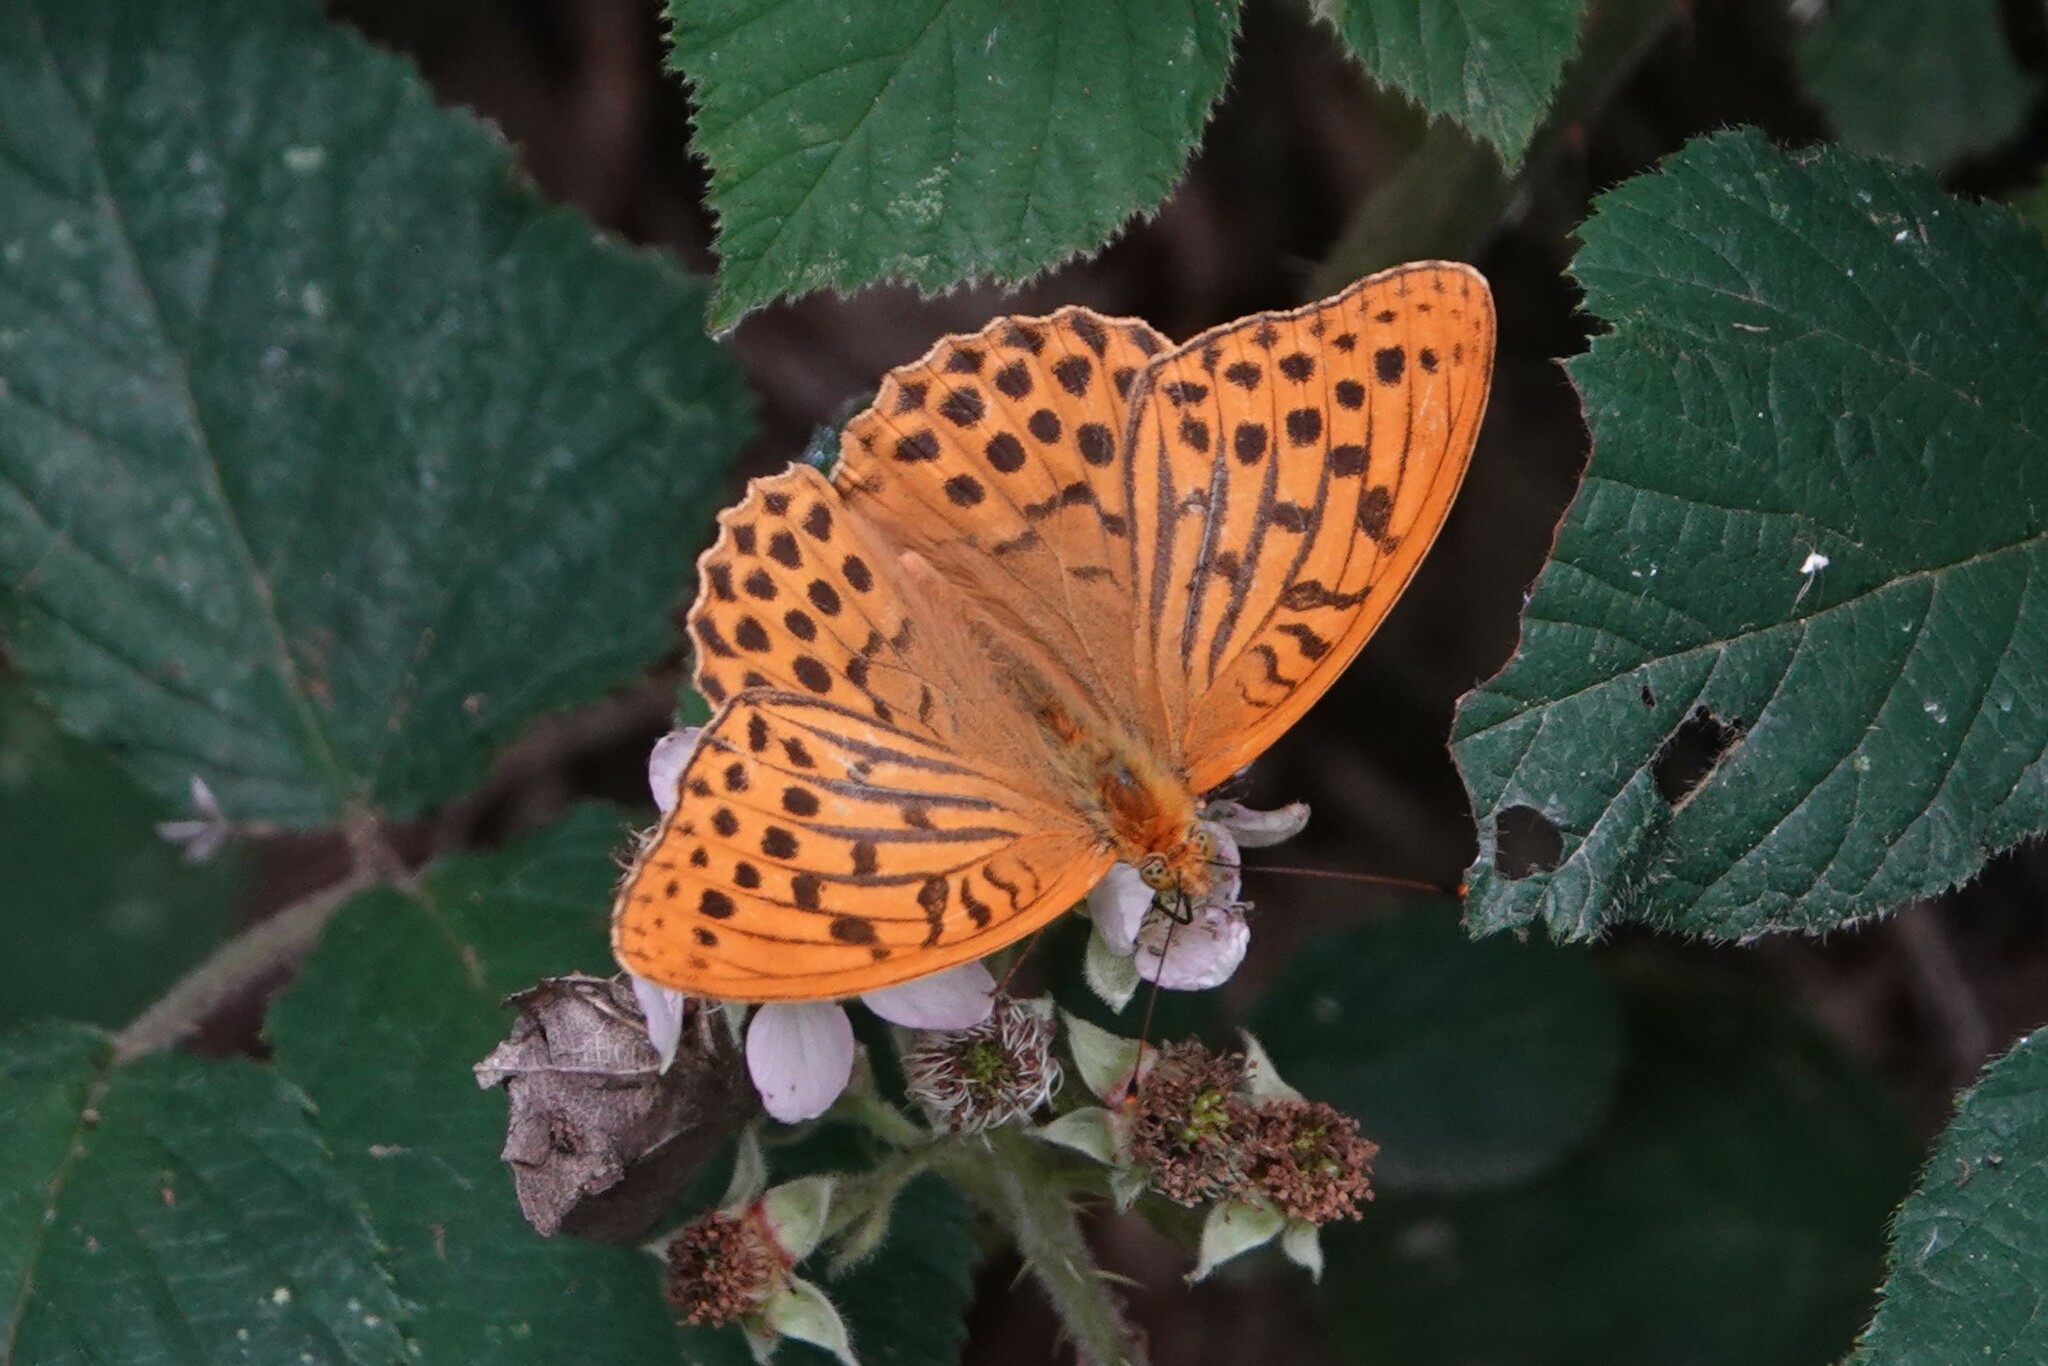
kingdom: Animalia
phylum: Arthropoda
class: Insecta
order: Lepidoptera
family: Nymphalidae
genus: Argynnis
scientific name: Argynnis paphia
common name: Silver-washed fritillary
